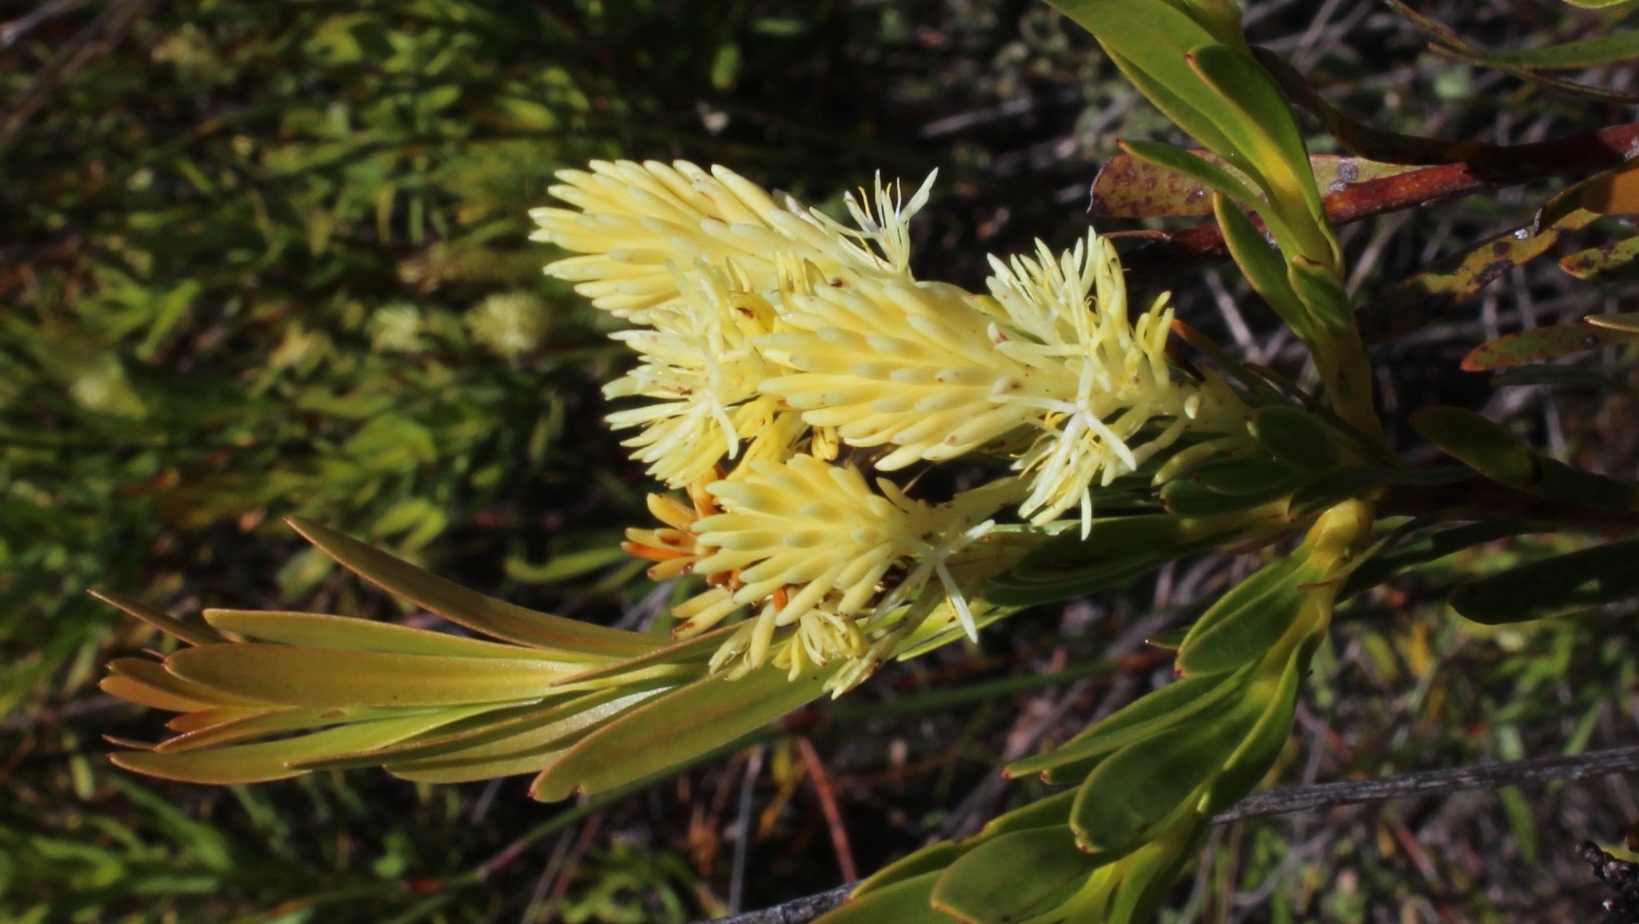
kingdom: Plantae
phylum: Tracheophyta
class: Magnoliopsida
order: Proteales
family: Proteaceae
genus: Aulax
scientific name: Aulax umbellata
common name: Broad-leaf featherbush
